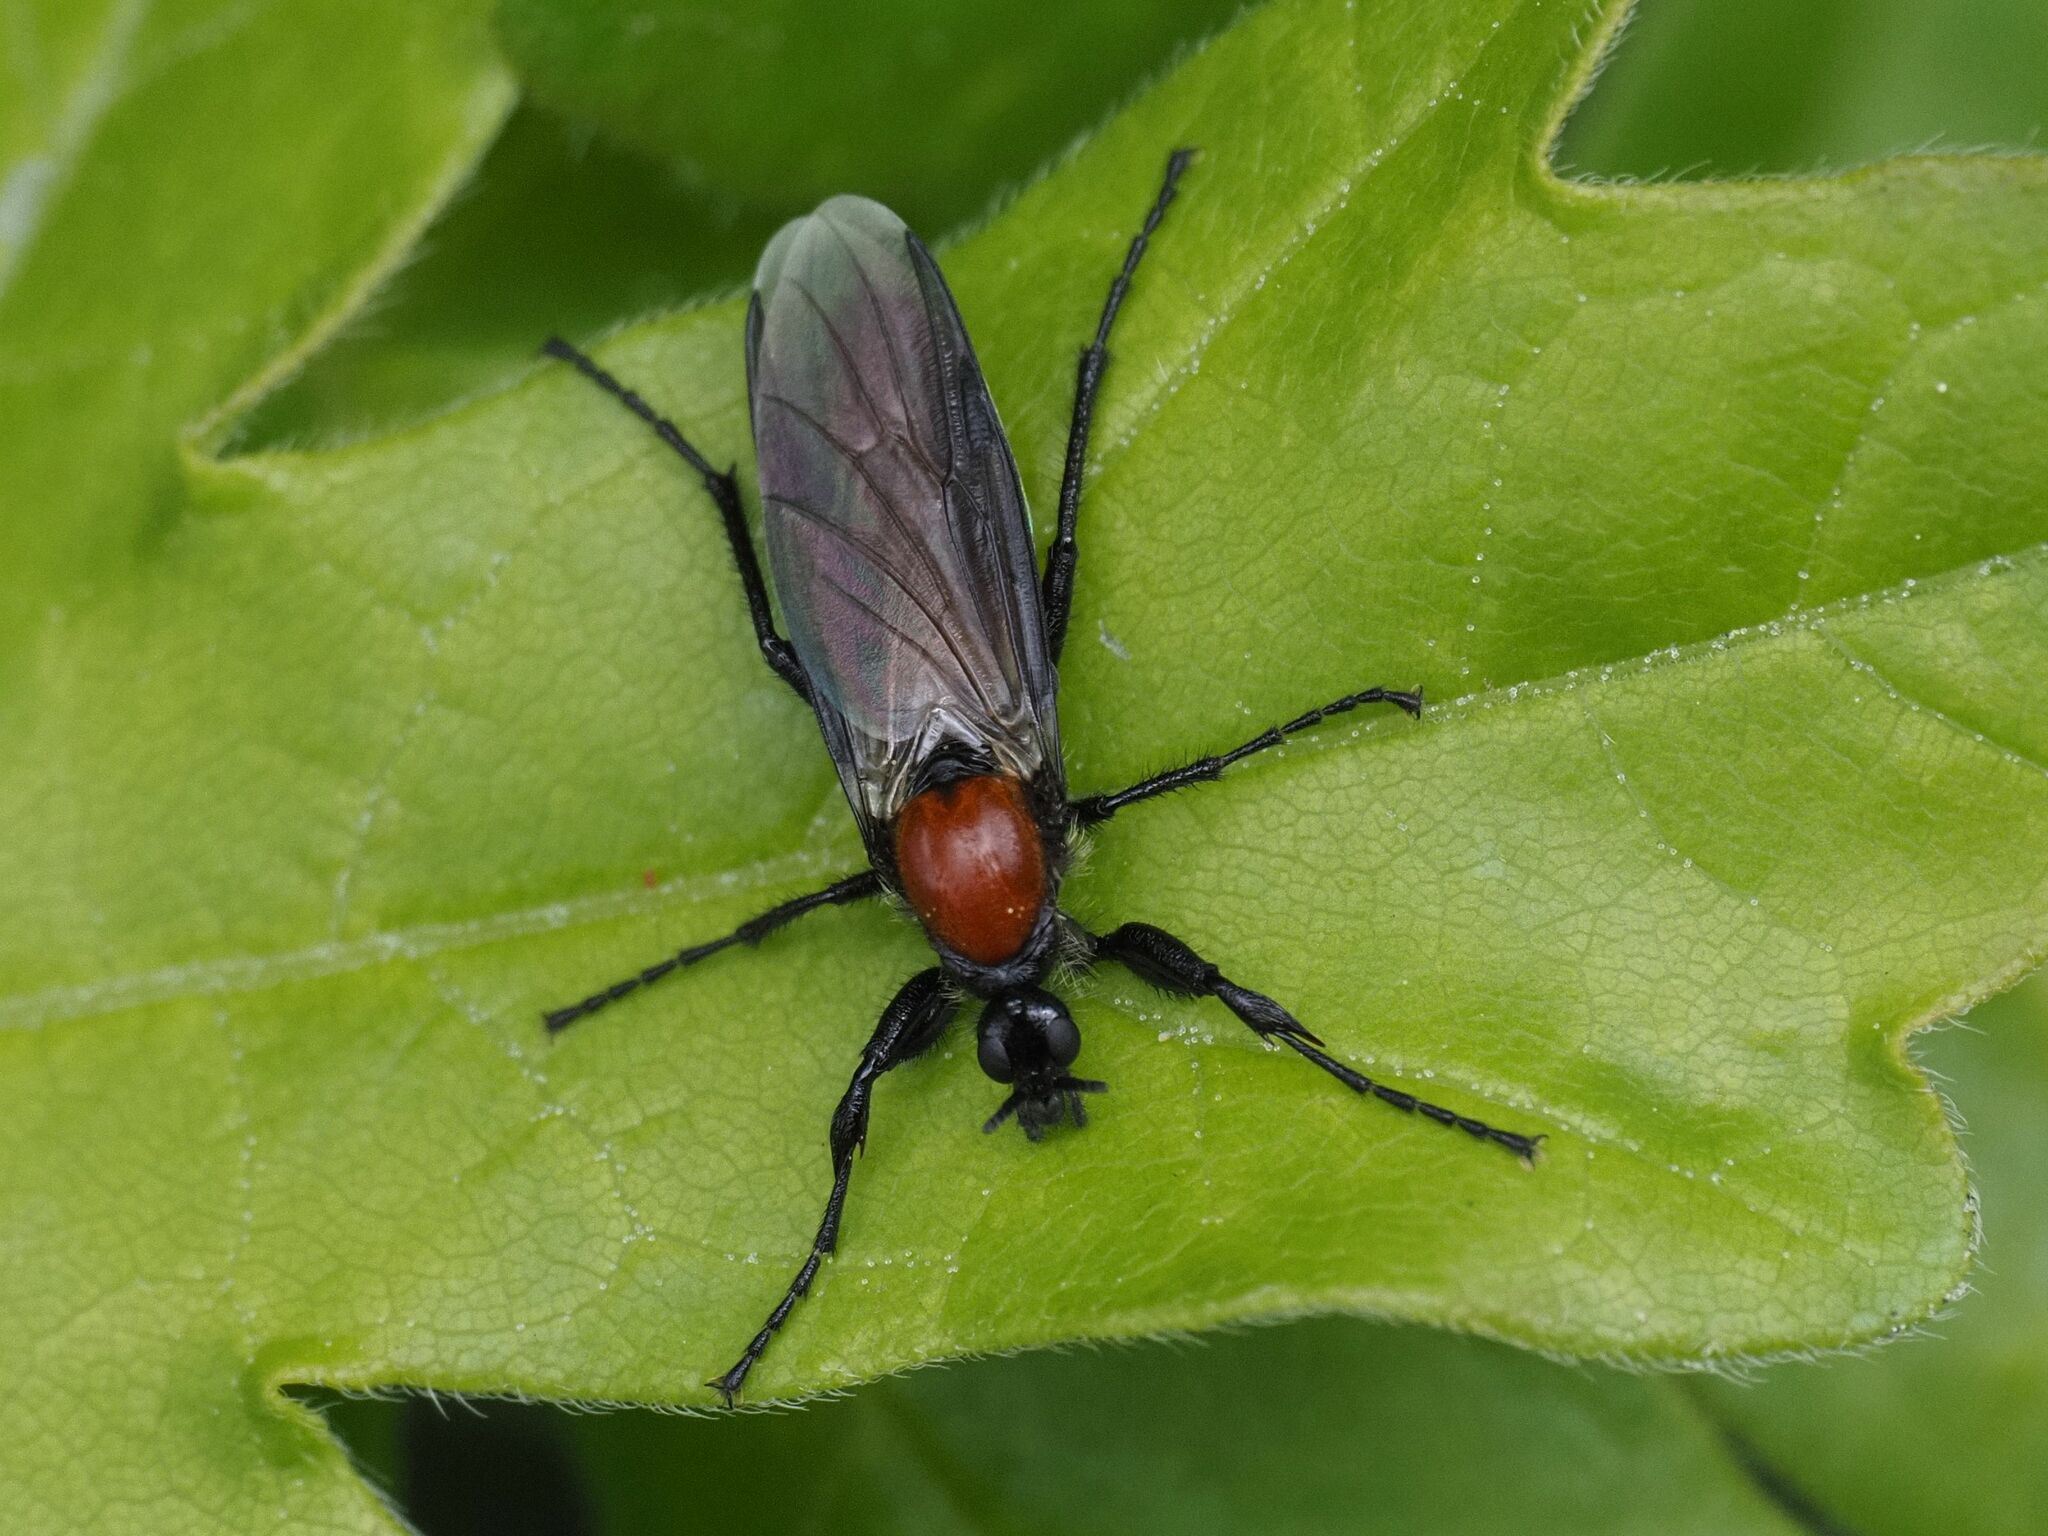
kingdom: Animalia
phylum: Arthropoda
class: Insecta
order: Diptera
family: Bibionidae
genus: Bibio
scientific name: Bibio hortulanus
